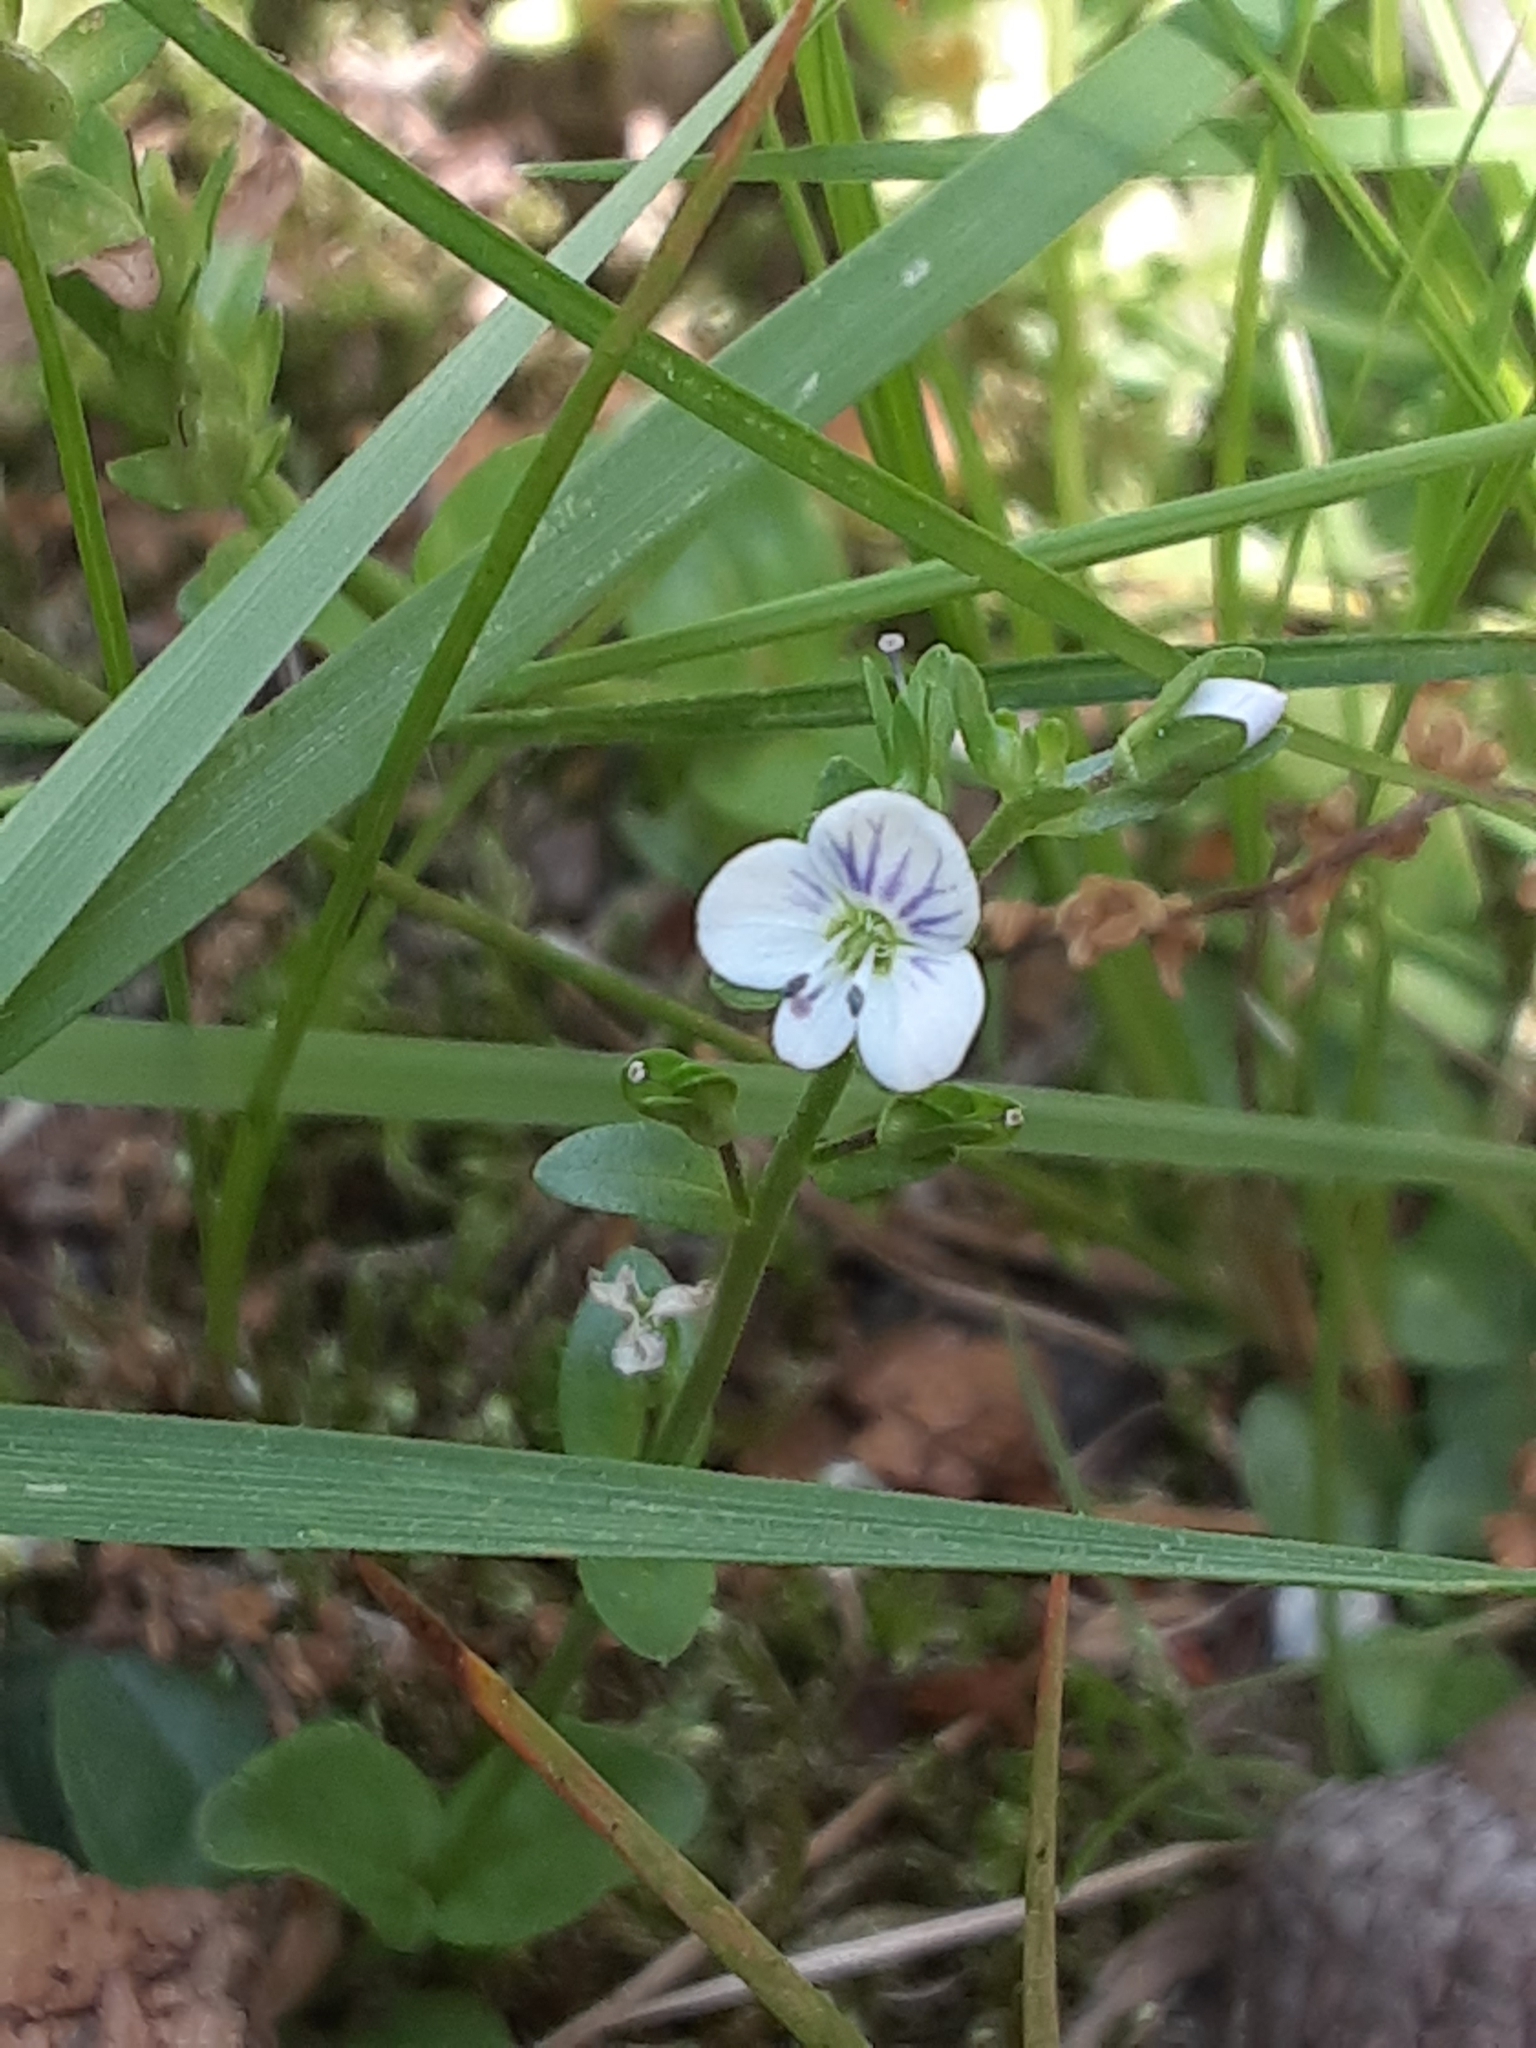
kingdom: Plantae
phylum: Tracheophyta
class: Magnoliopsida
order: Lamiales
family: Plantaginaceae
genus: Veronica
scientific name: Veronica serpyllifolia
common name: Thyme-leaved speedwell
